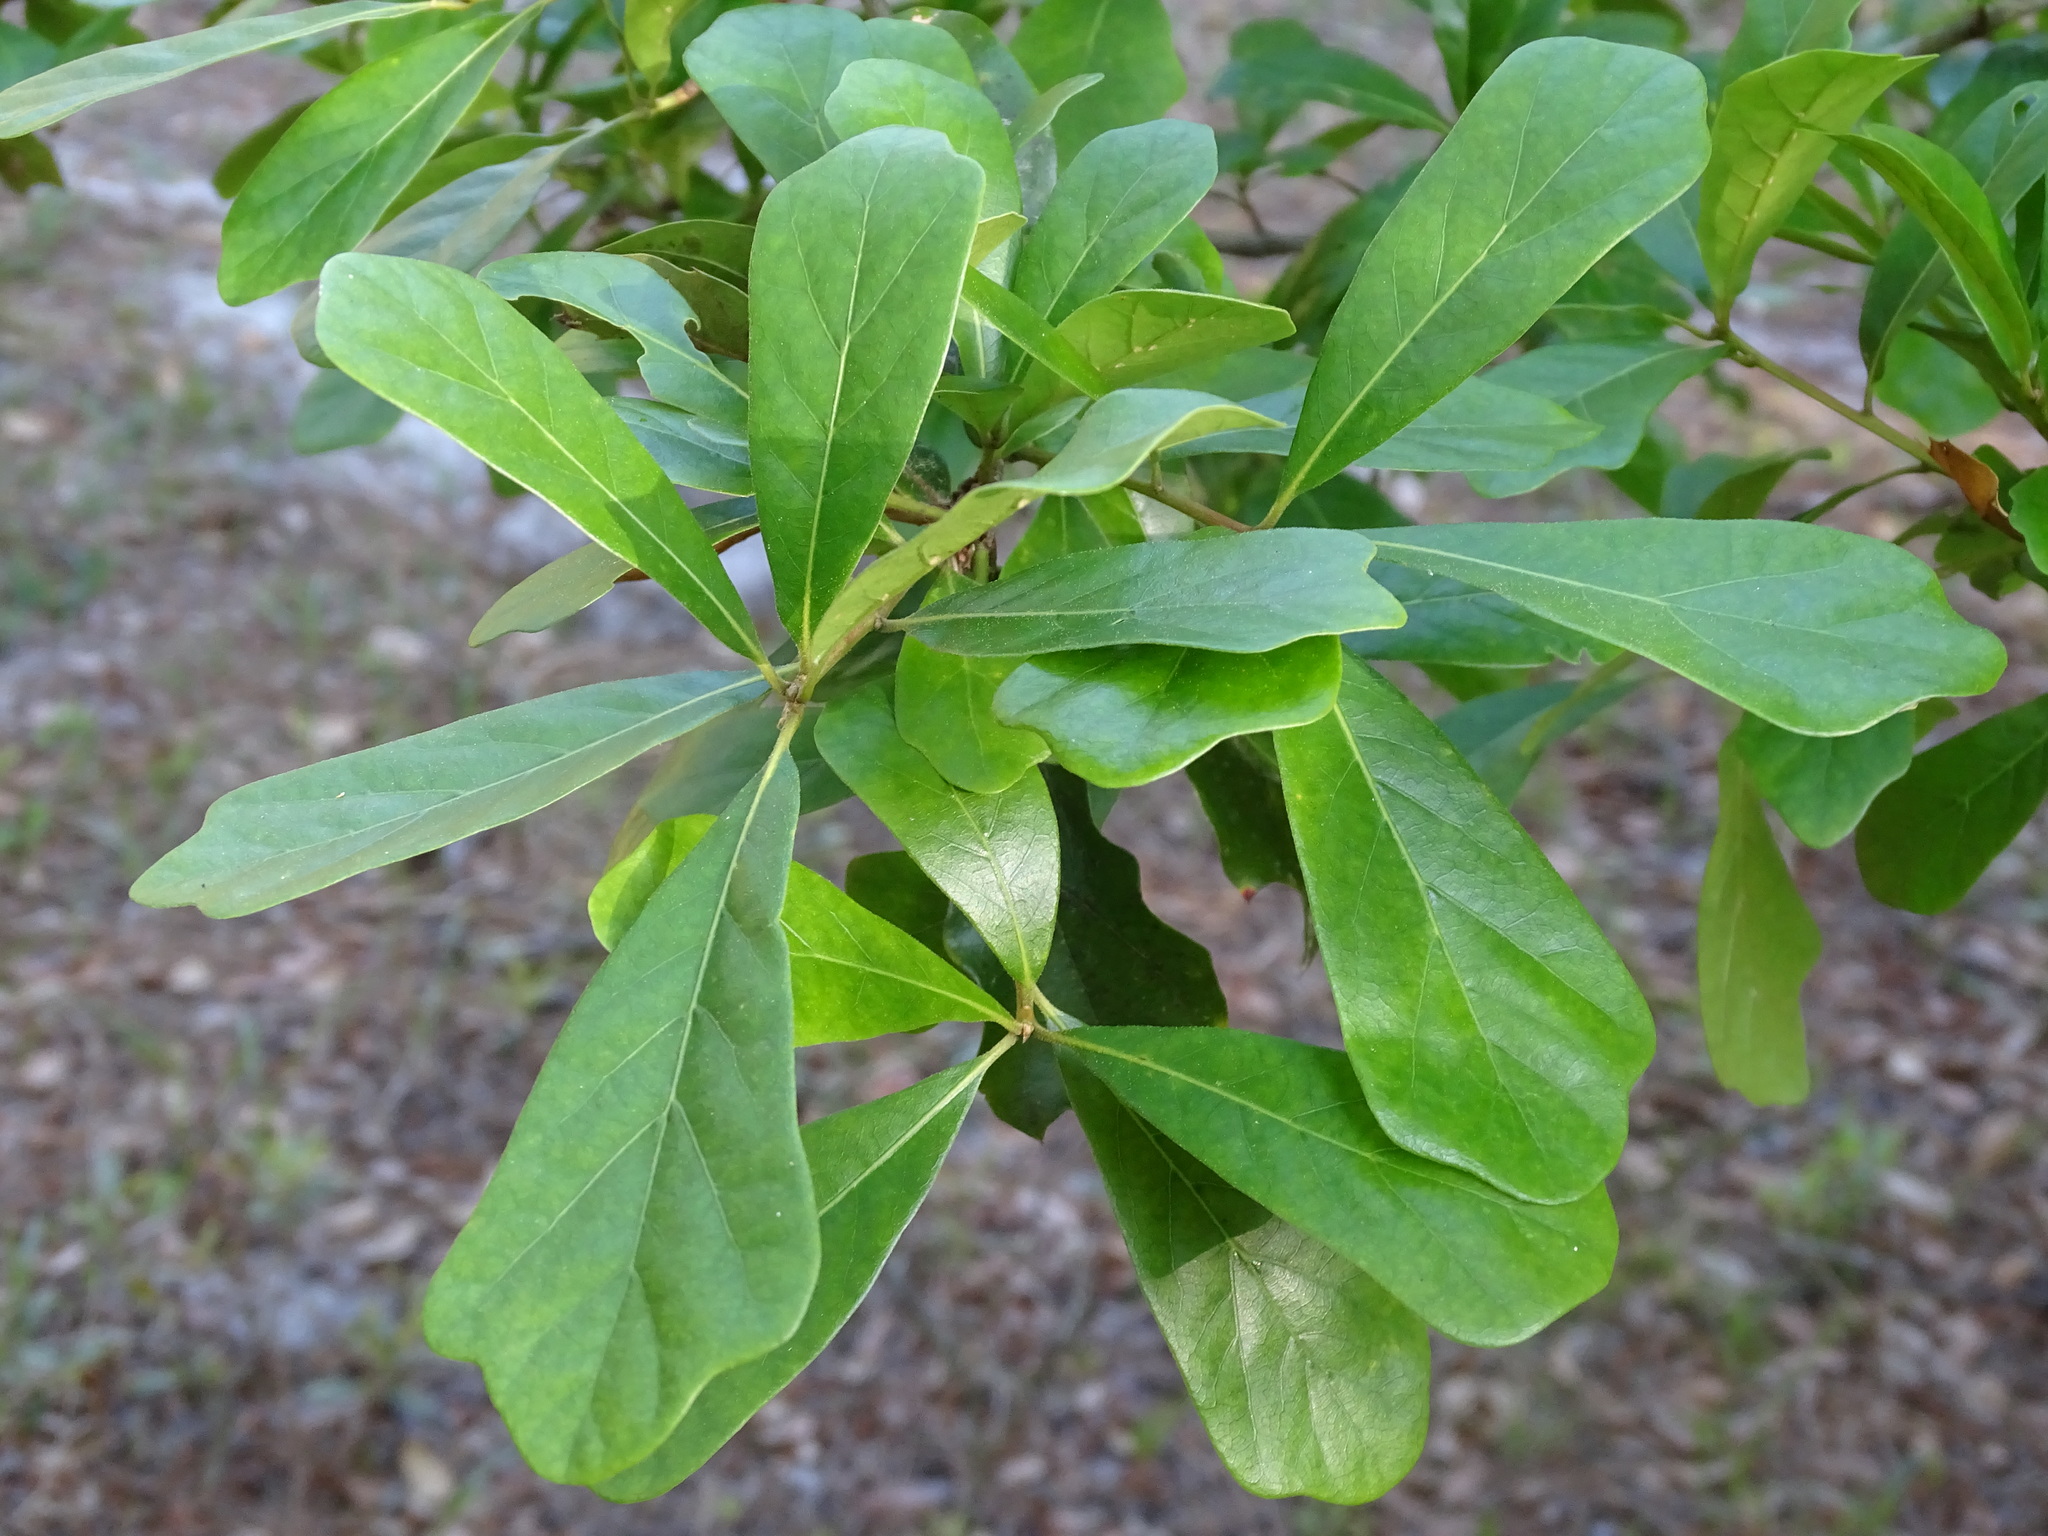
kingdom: Plantae
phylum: Tracheophyta
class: Magnoliopsida
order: Fagales
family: Fagaceae
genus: Quercus
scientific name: Quercus nigra
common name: Water oak
